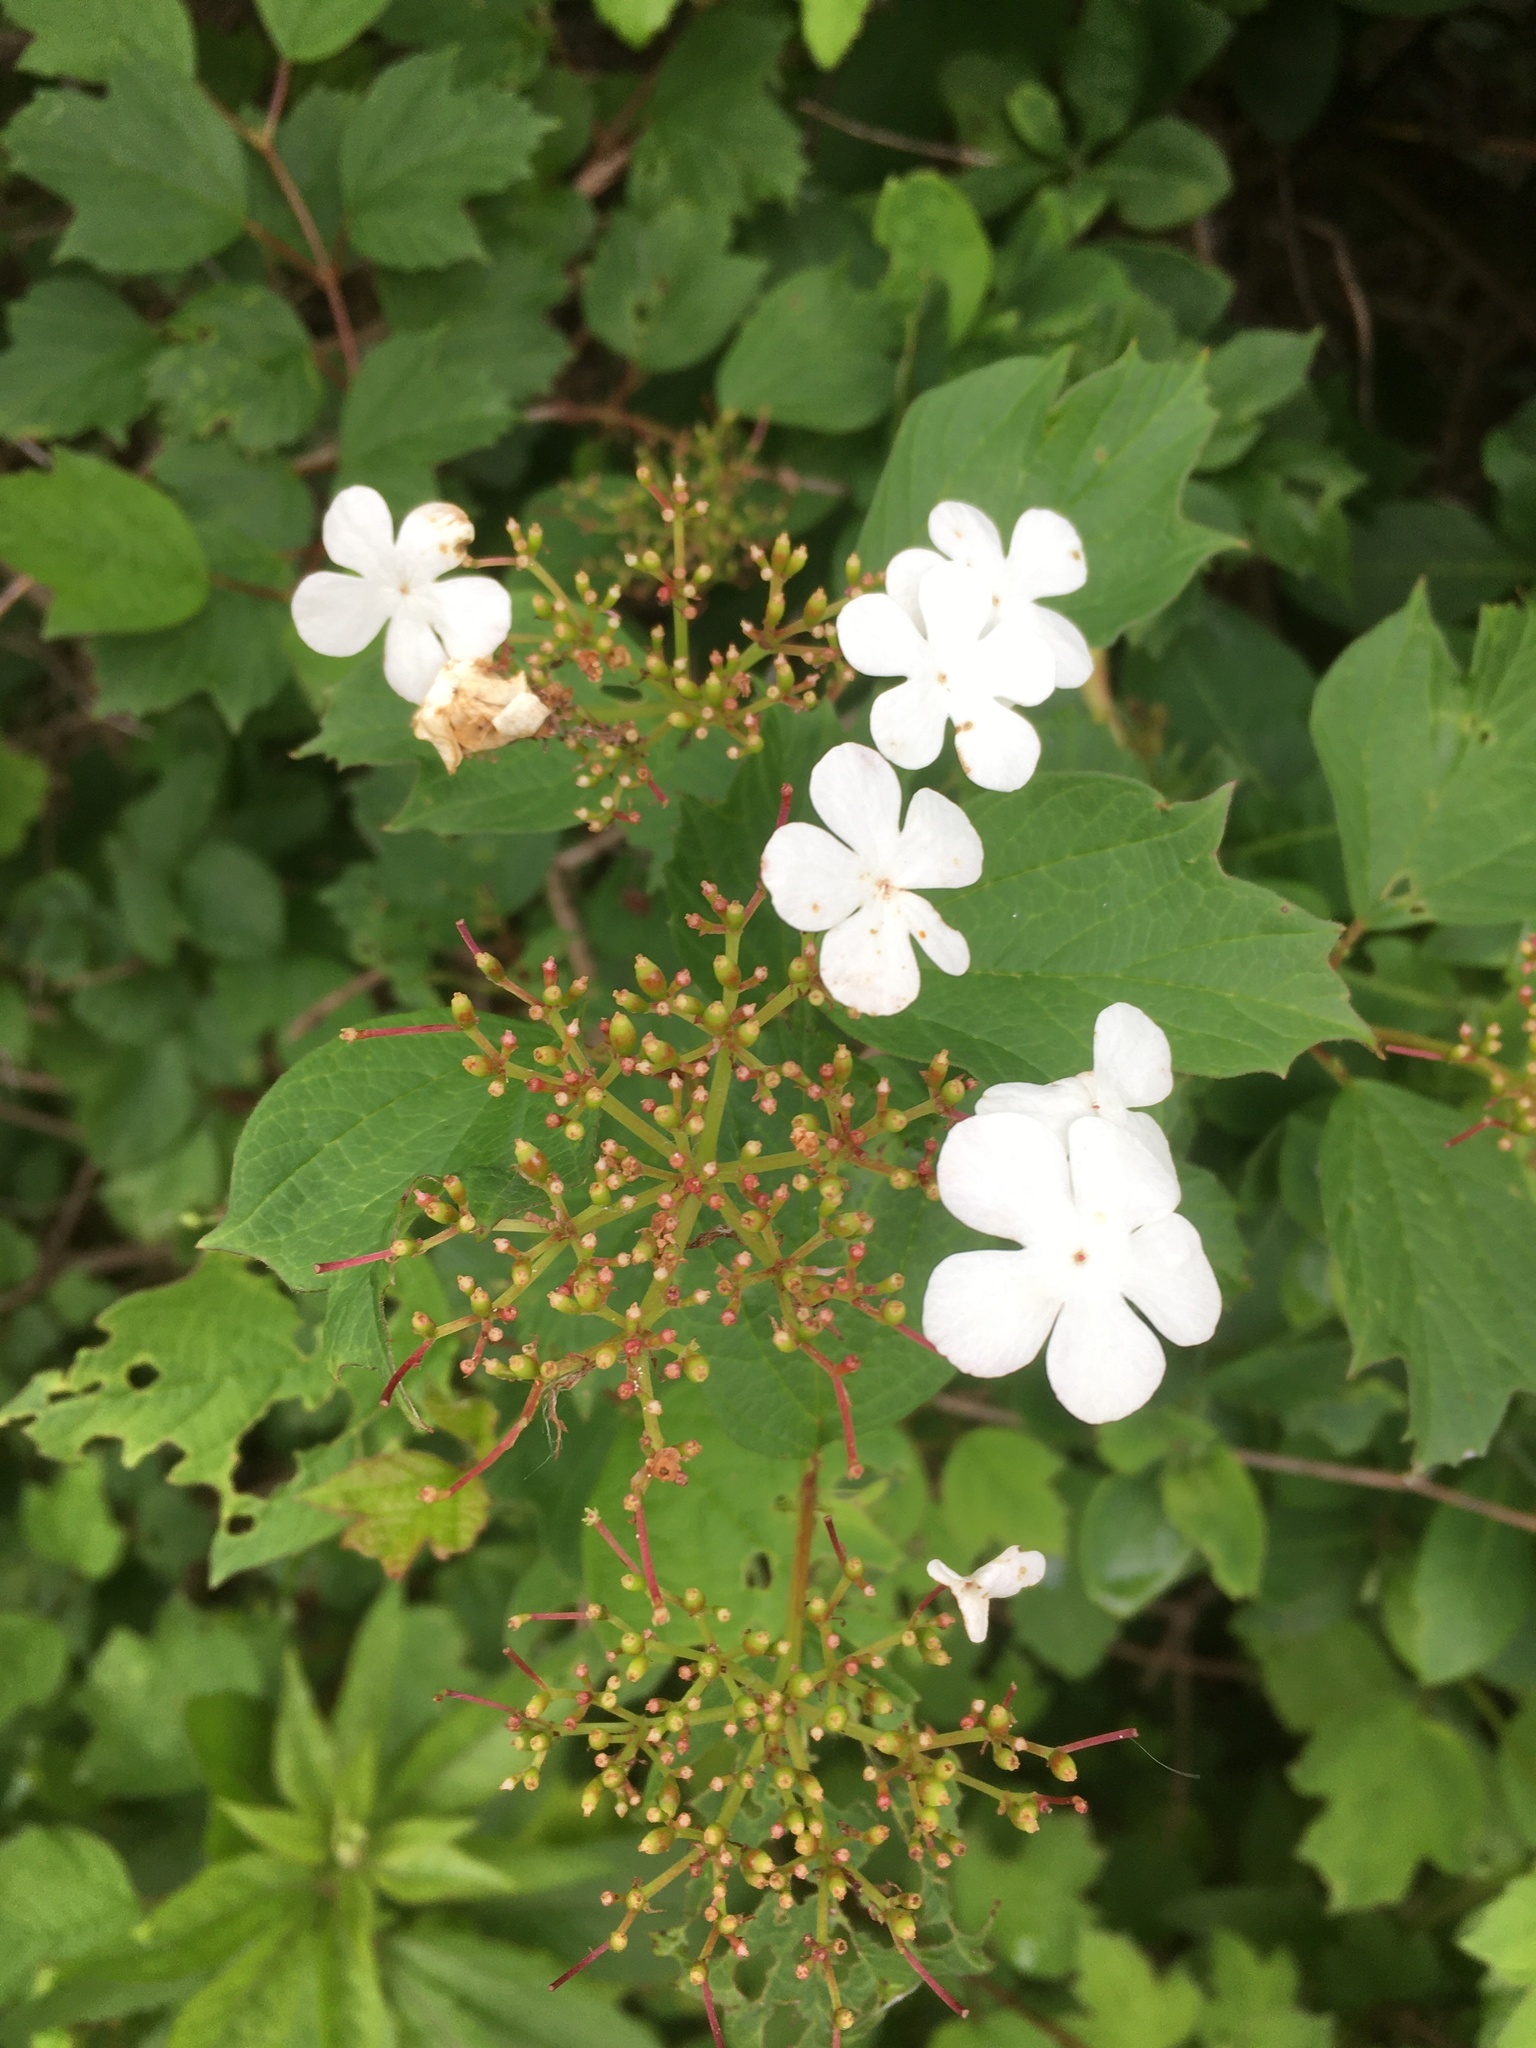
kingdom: Plantae
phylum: Tracheophyta
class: Magnoliopsida
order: Dipsacales
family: Viburnaceae
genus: Viburnum
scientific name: Viburnum opulus
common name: Guelder-rose
